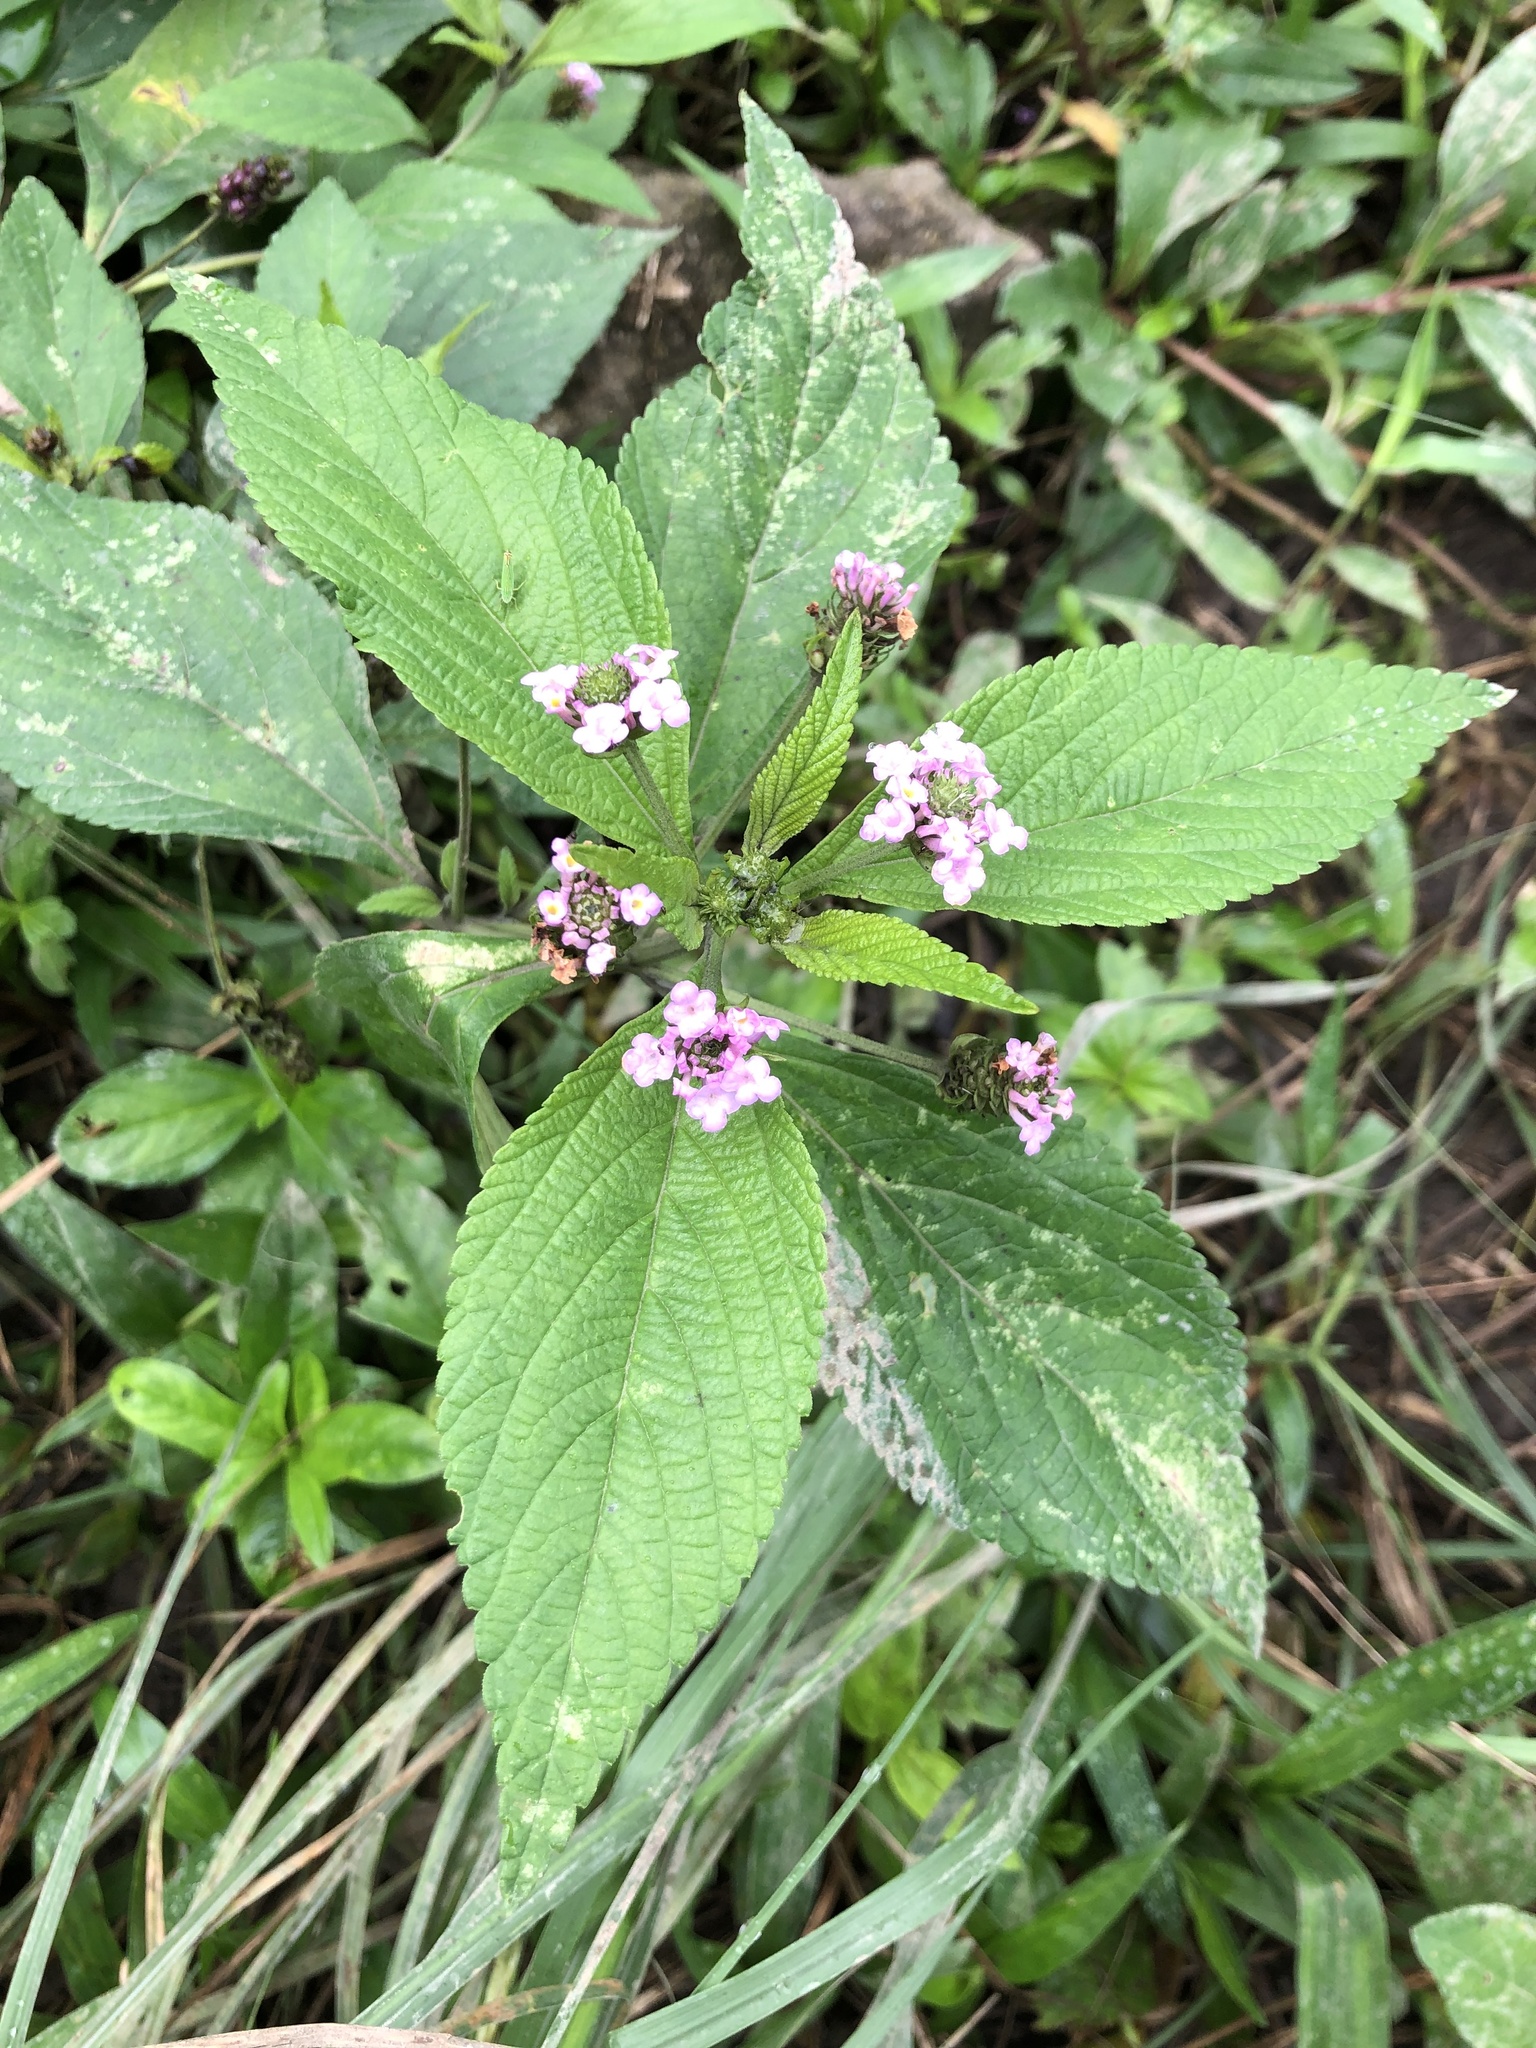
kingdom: Plantae
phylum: Tracheophyta
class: Magnoliopsida
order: Lamiales
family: Verbenaceae
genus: Lantana
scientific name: Lantana trifolia
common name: Sweet-sage
